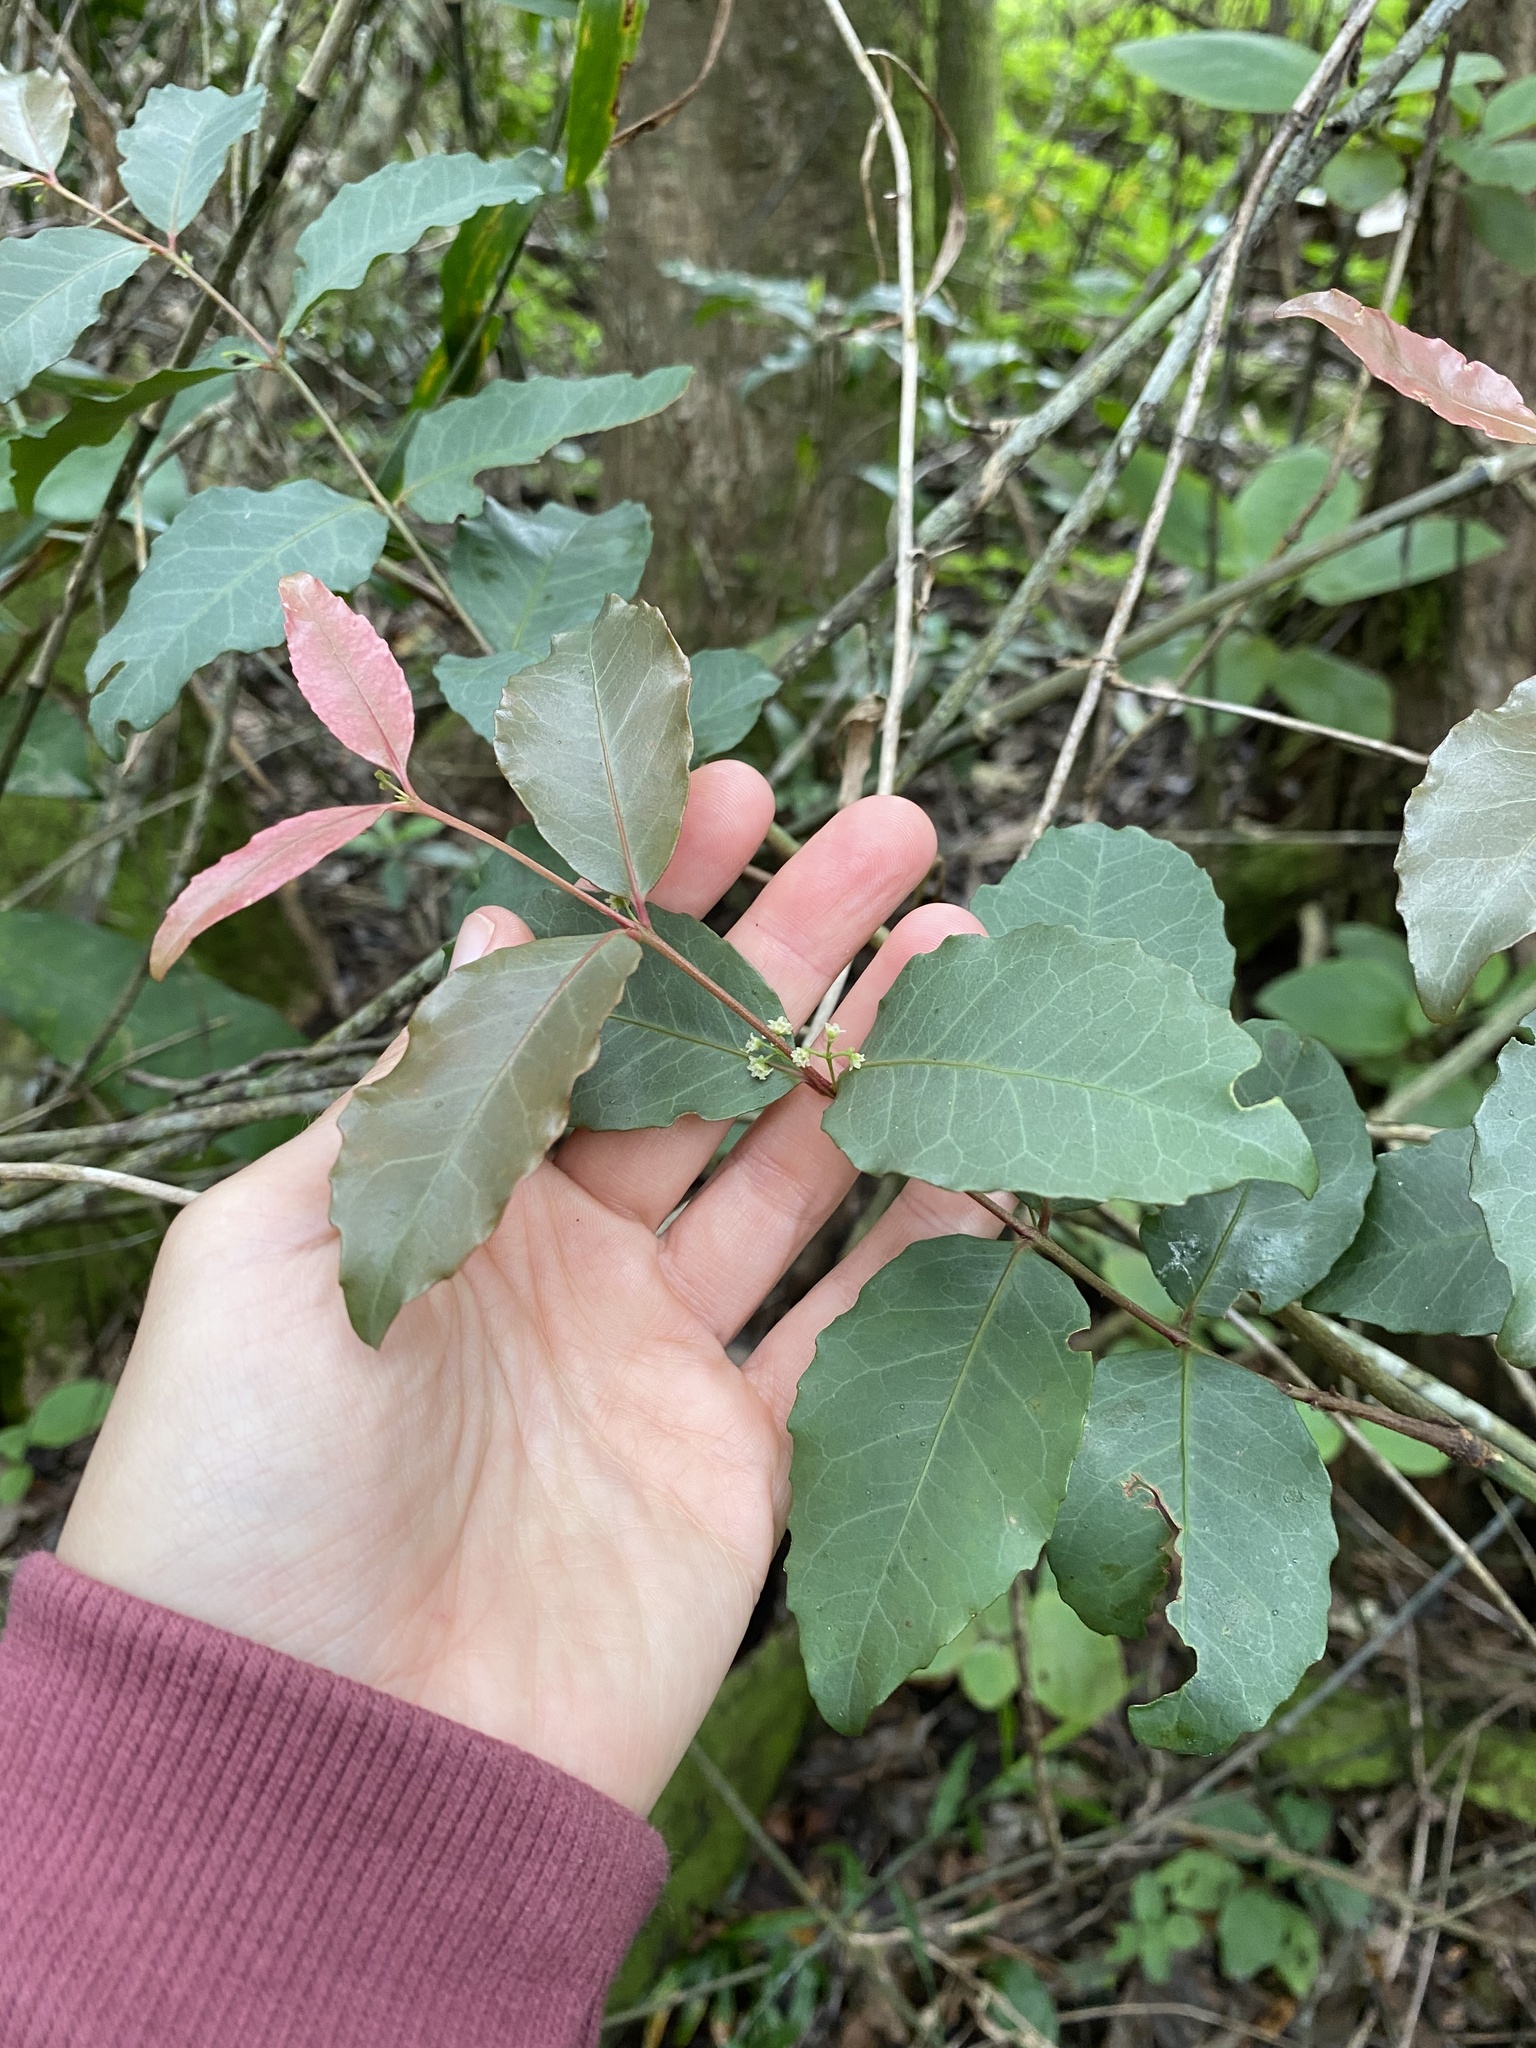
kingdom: Plantae
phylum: Tracheophyta
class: Magnoliopsida
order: Celastrales
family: Celastraceae
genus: Lauridia
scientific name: Lauridia tetragona
